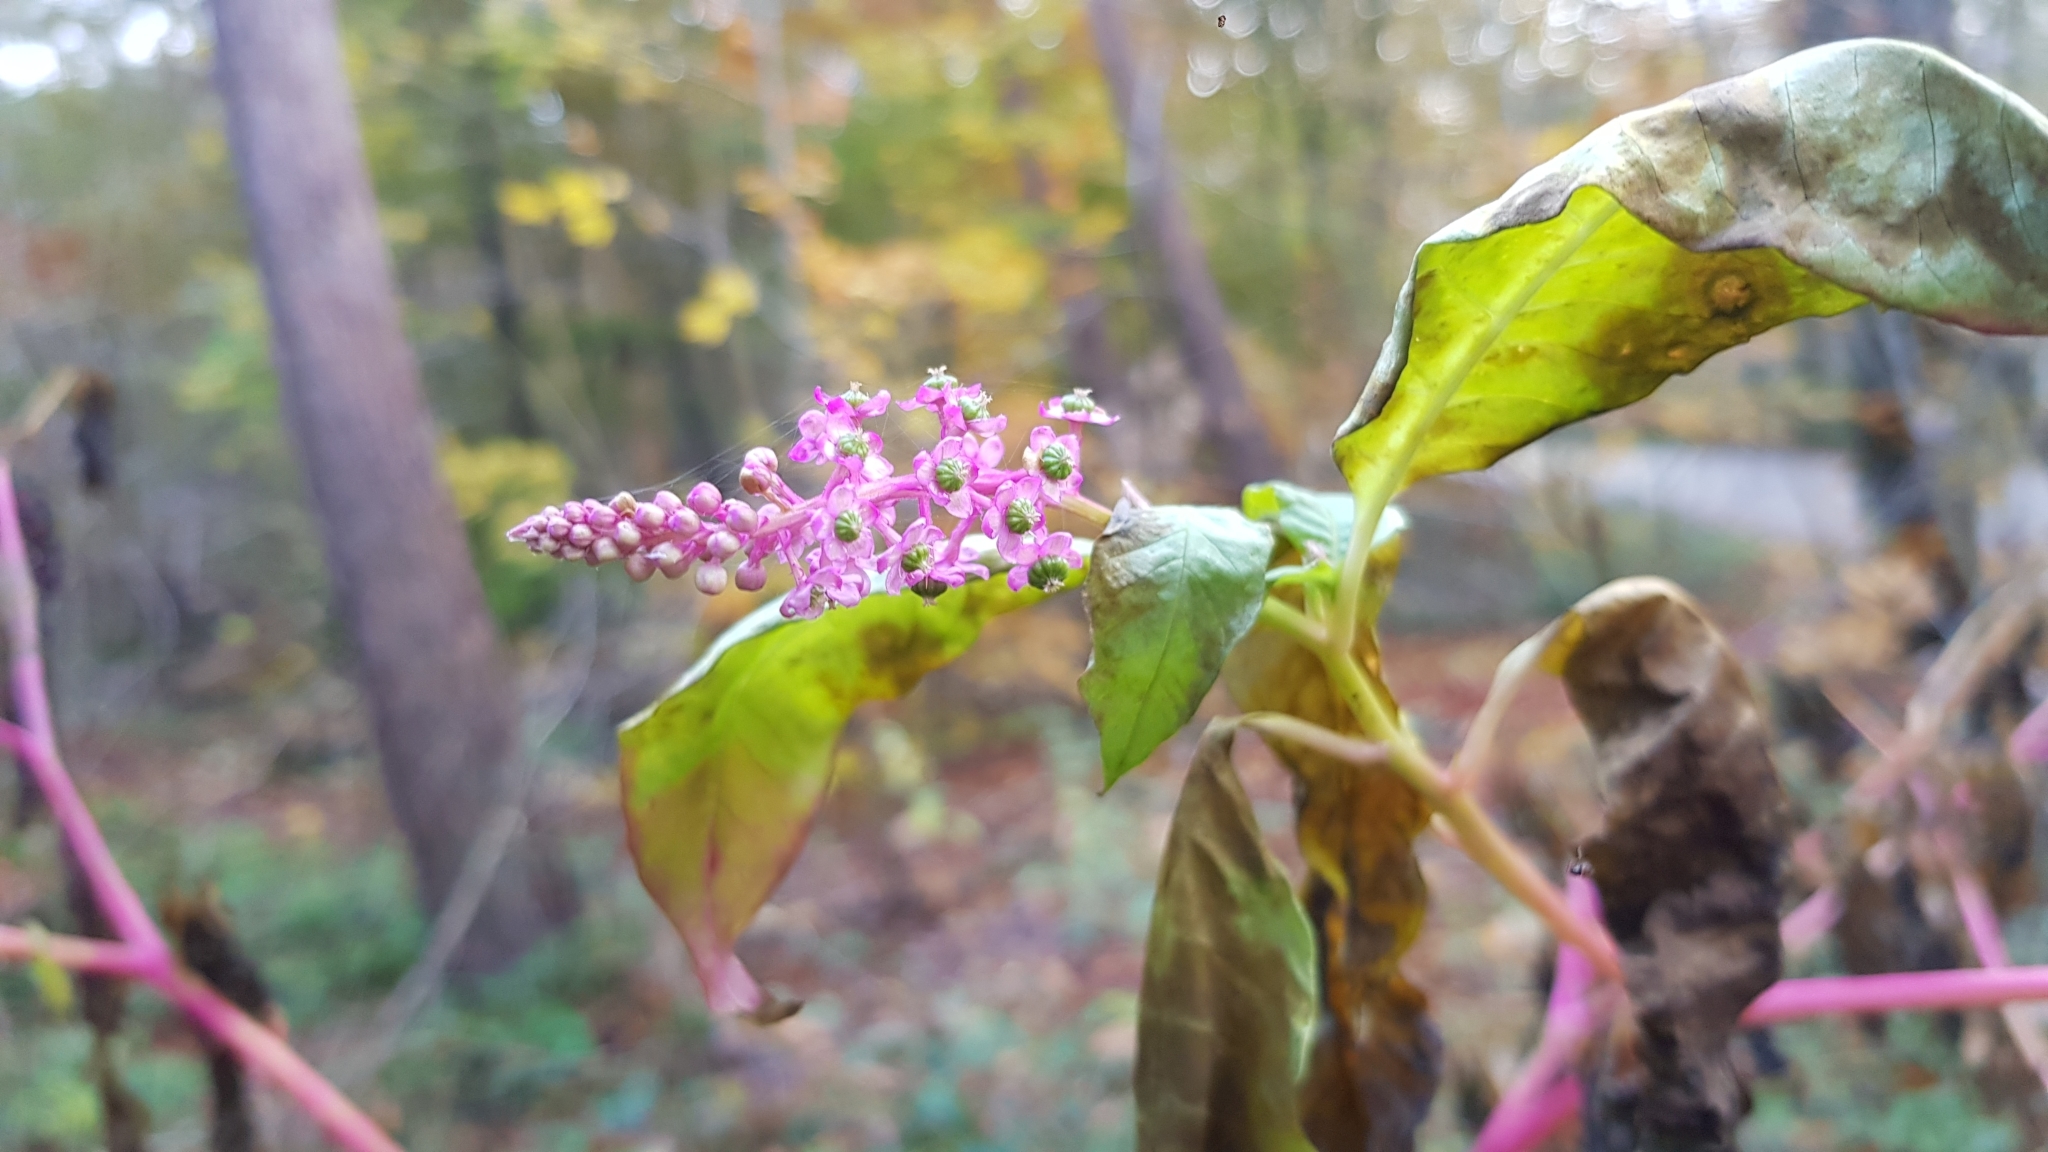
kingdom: Plantae
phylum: Tracheophyta
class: Magnoliopsida
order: Caryophyllales
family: Phytolaccaceae
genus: Phytolacca
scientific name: Phytolacca americana
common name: American pokeweed
